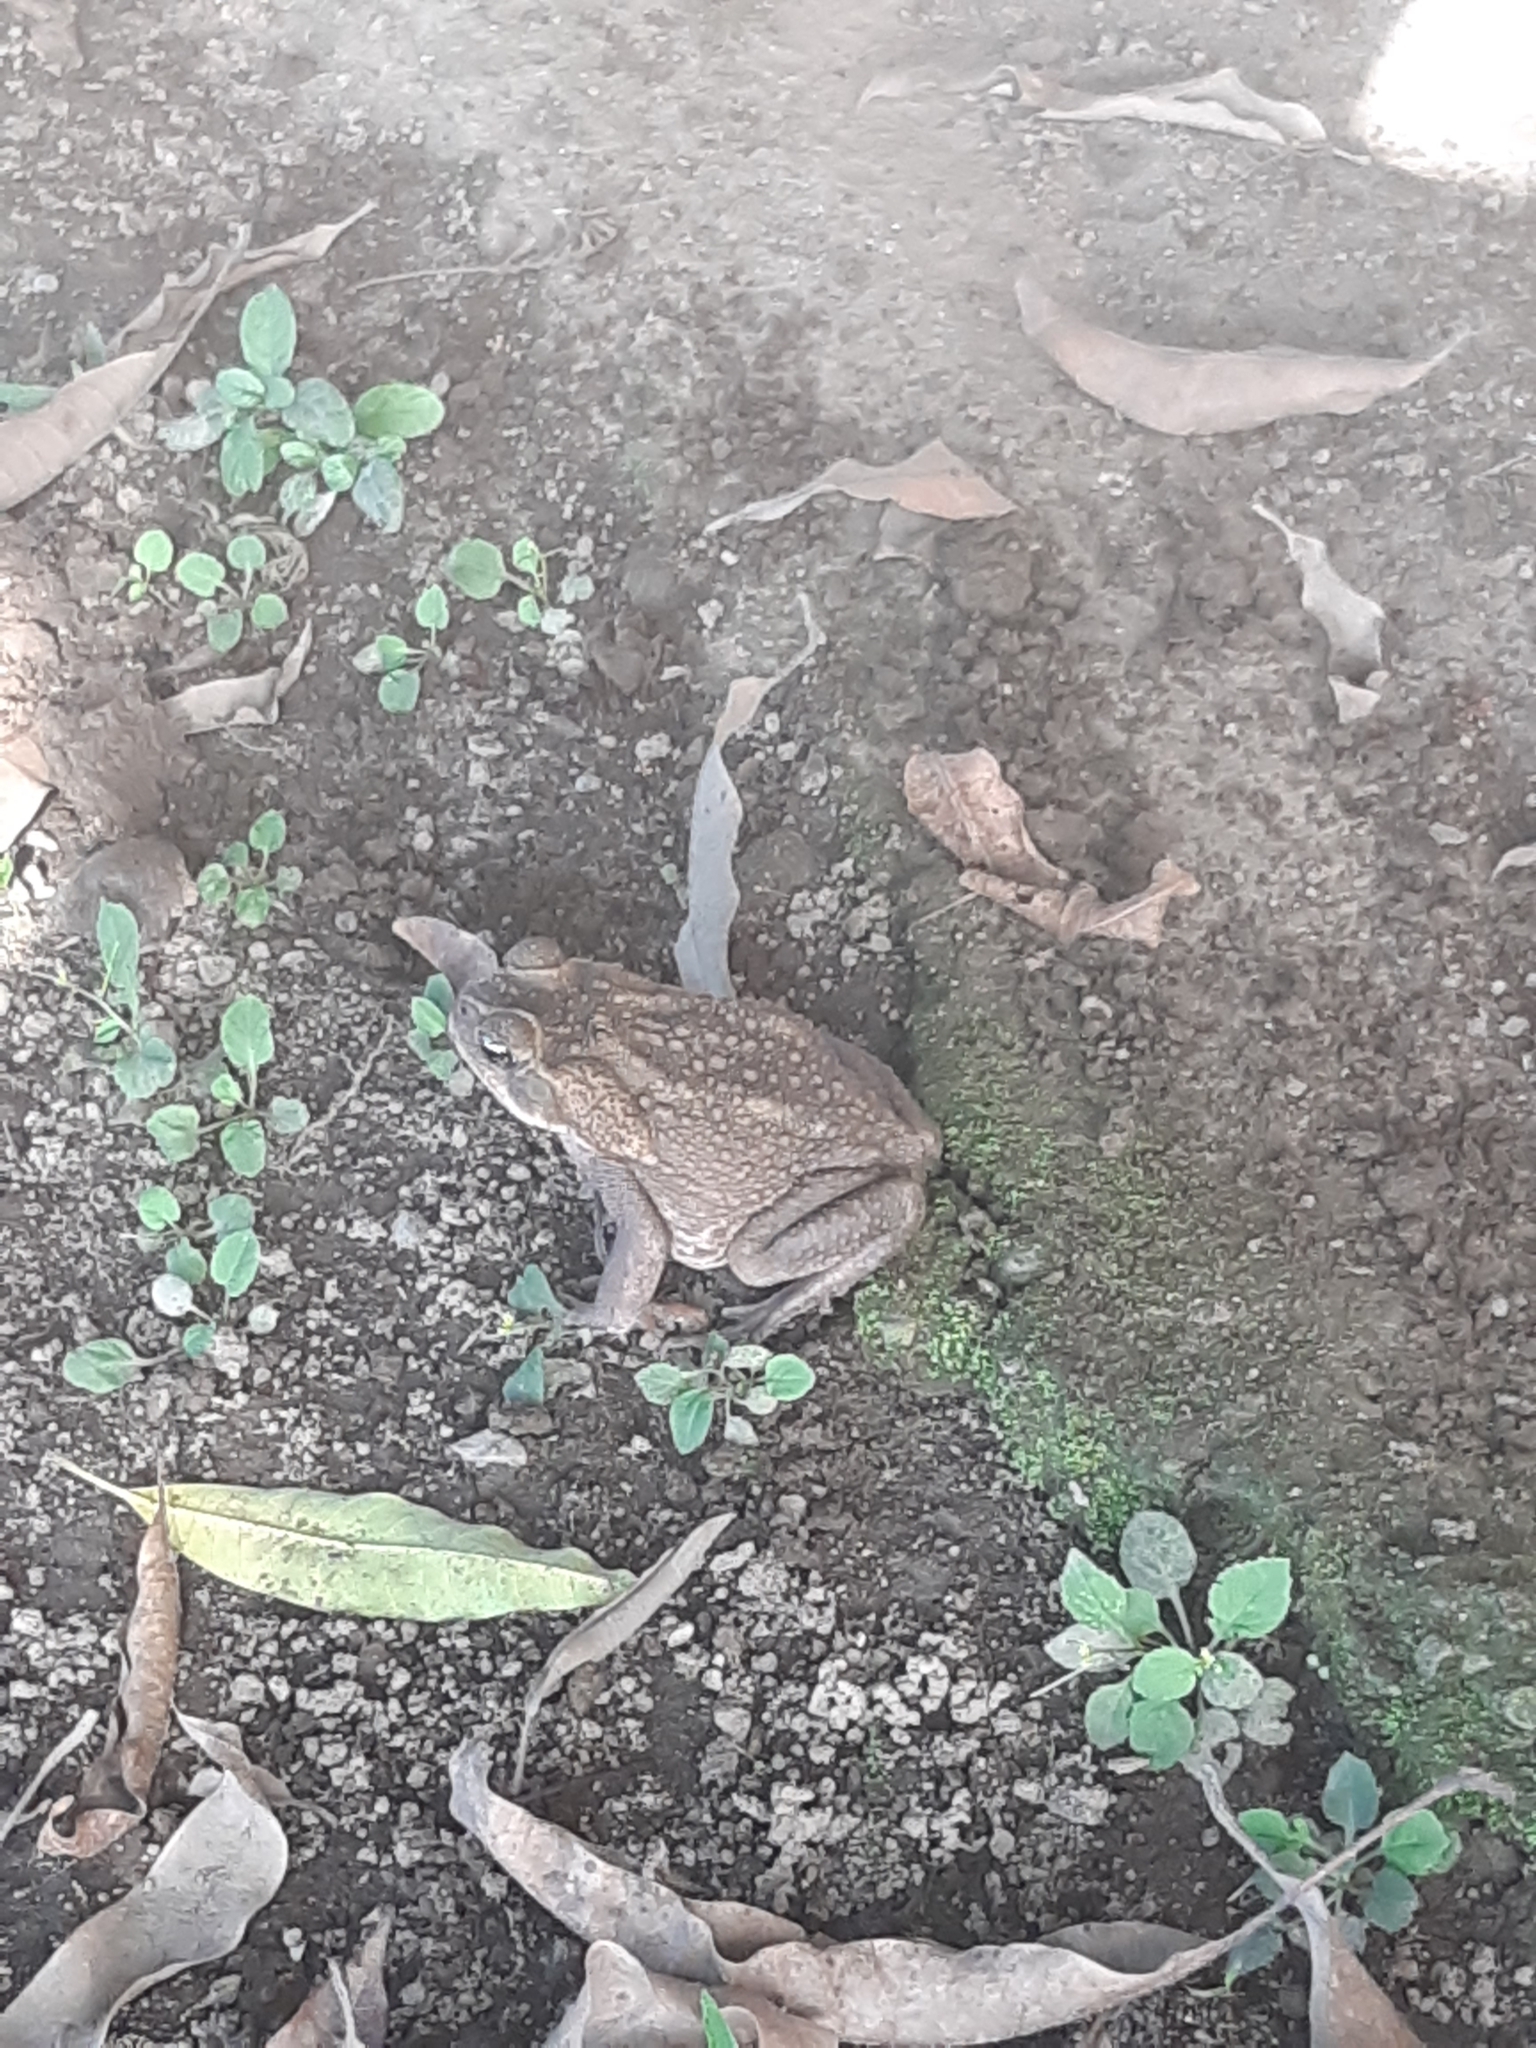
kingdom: Animalia
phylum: Chordata
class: Amphibia
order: Anura
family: Bufonidae
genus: Rhinella
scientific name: Rhinella horribilis
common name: Mesoamerican cane toad
